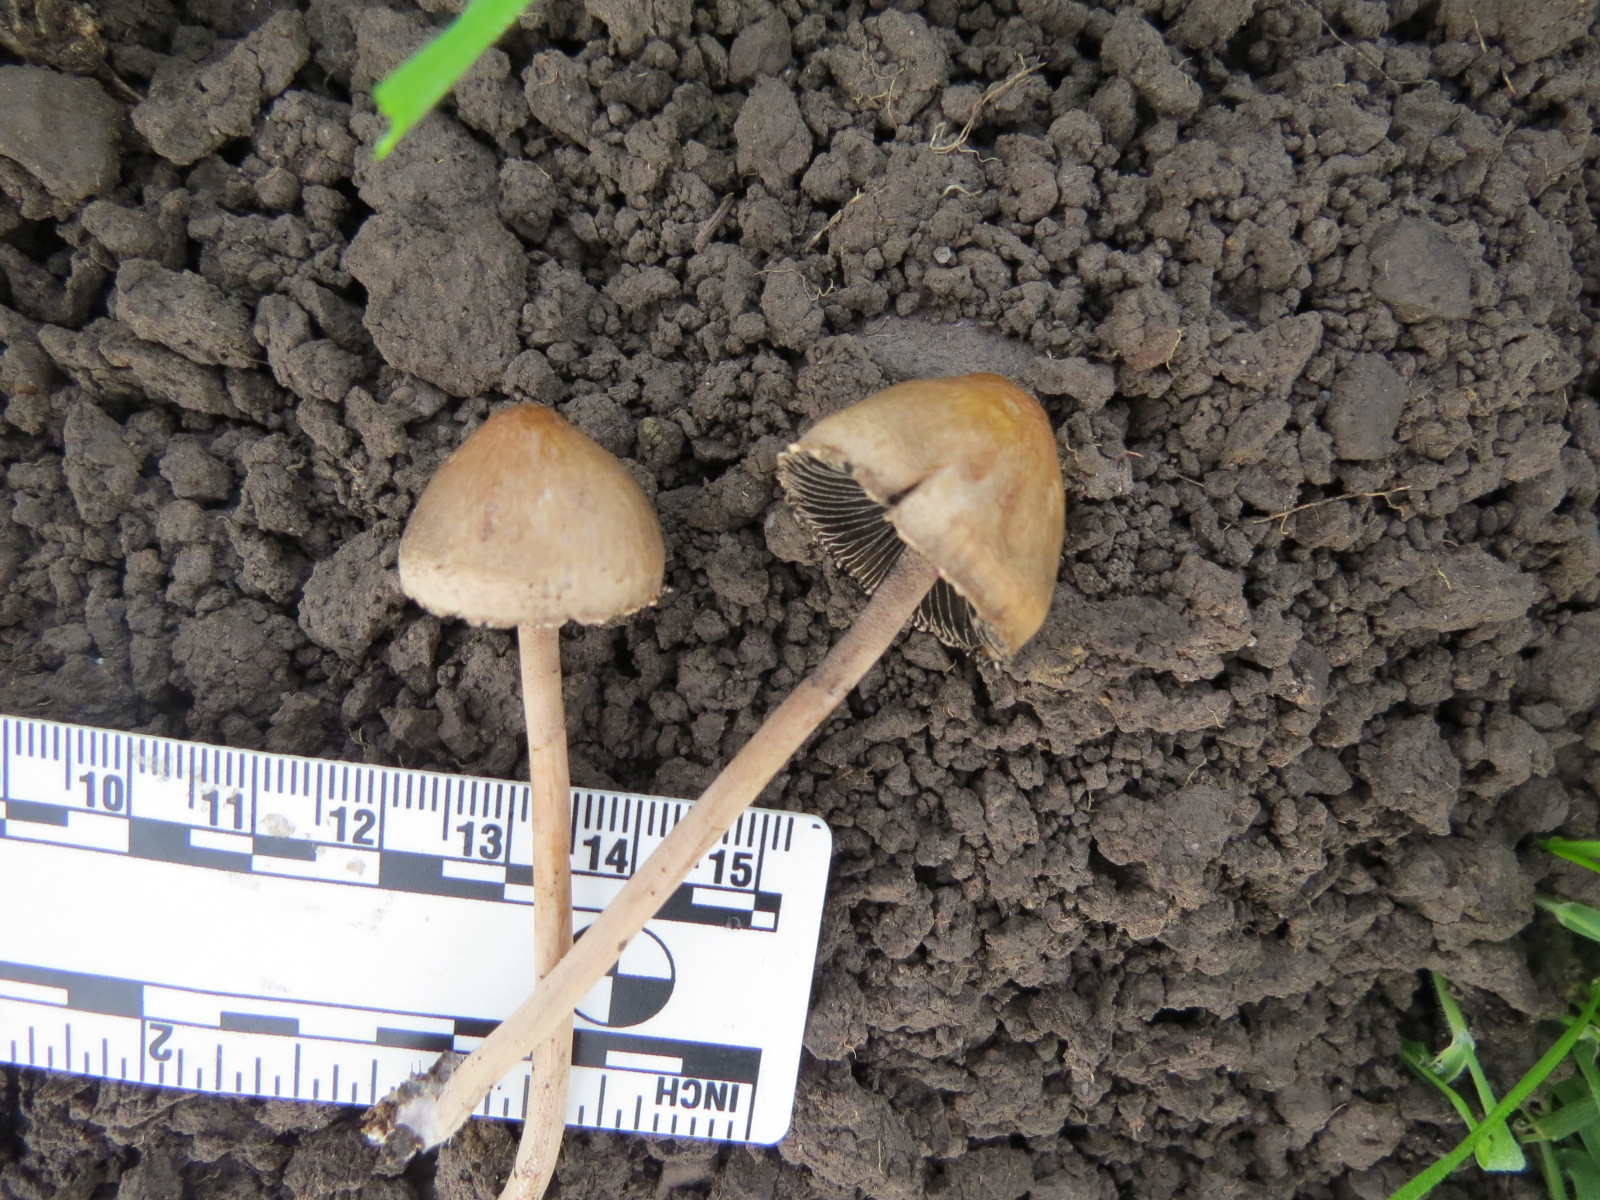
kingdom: Fungi
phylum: Basidiomycota
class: Agaricomycetes
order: Agaricales
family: Bolbitiaceae
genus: Panaeolus
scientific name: Panaeolus papilionaceus
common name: Petticoat mottlegill
